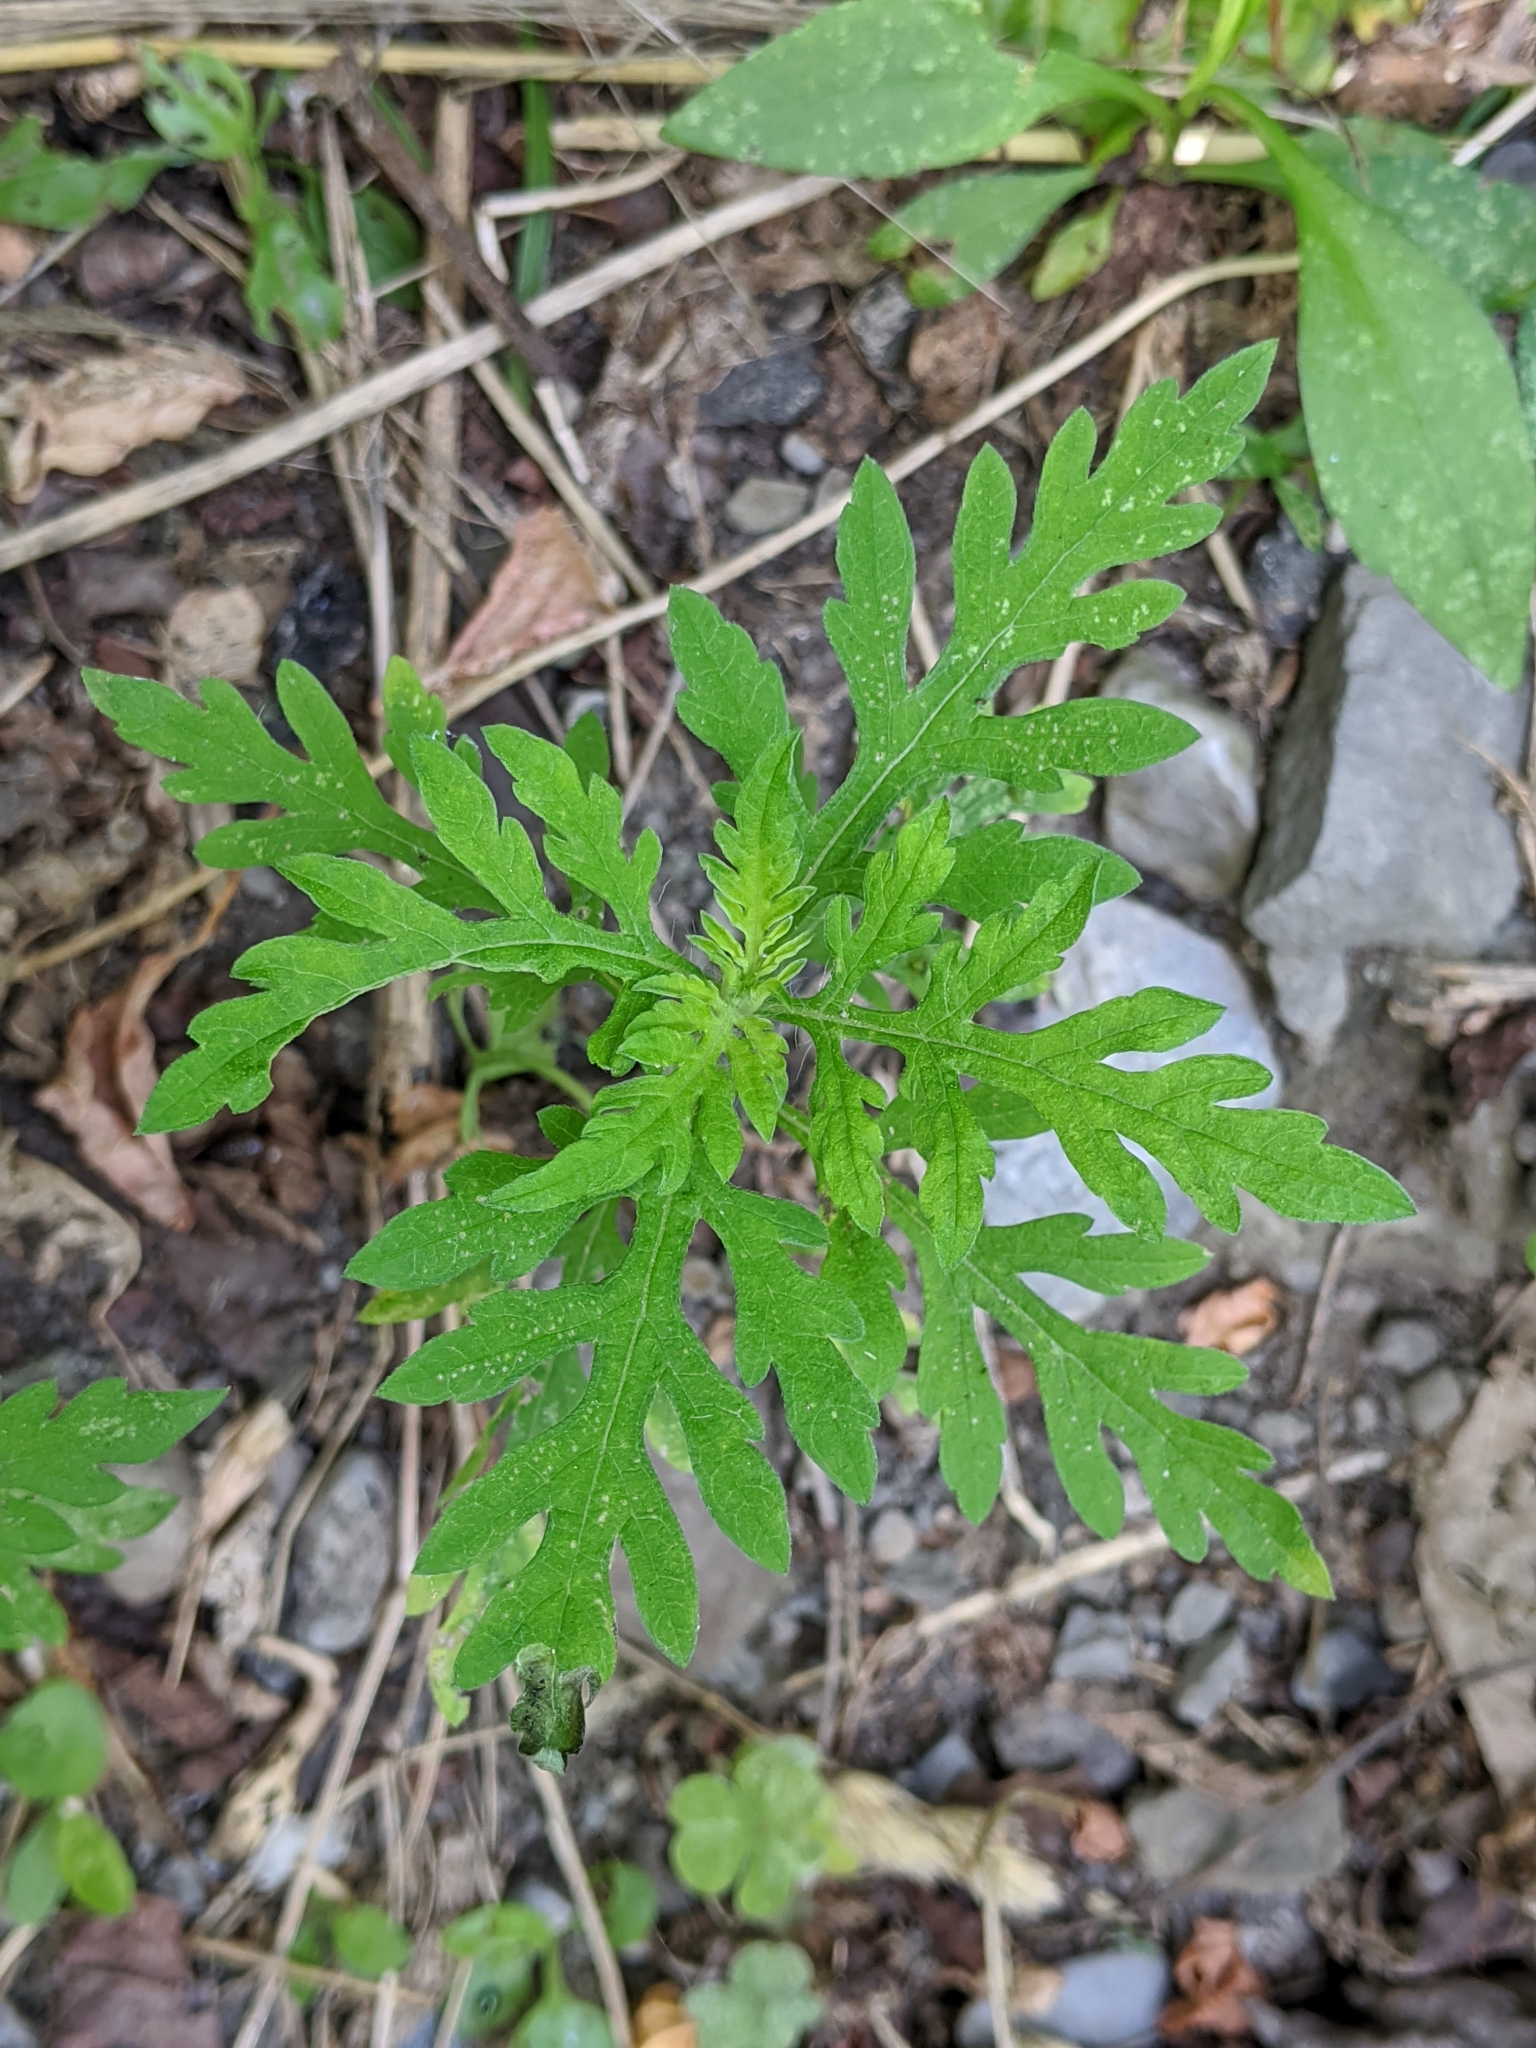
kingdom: Plantae
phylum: Tracheophyta
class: Magnoliopsida
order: Asterales
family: Asteraceae
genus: Ambrosia
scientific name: Ambrosia artemisiifolia
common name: Annual ragweed
